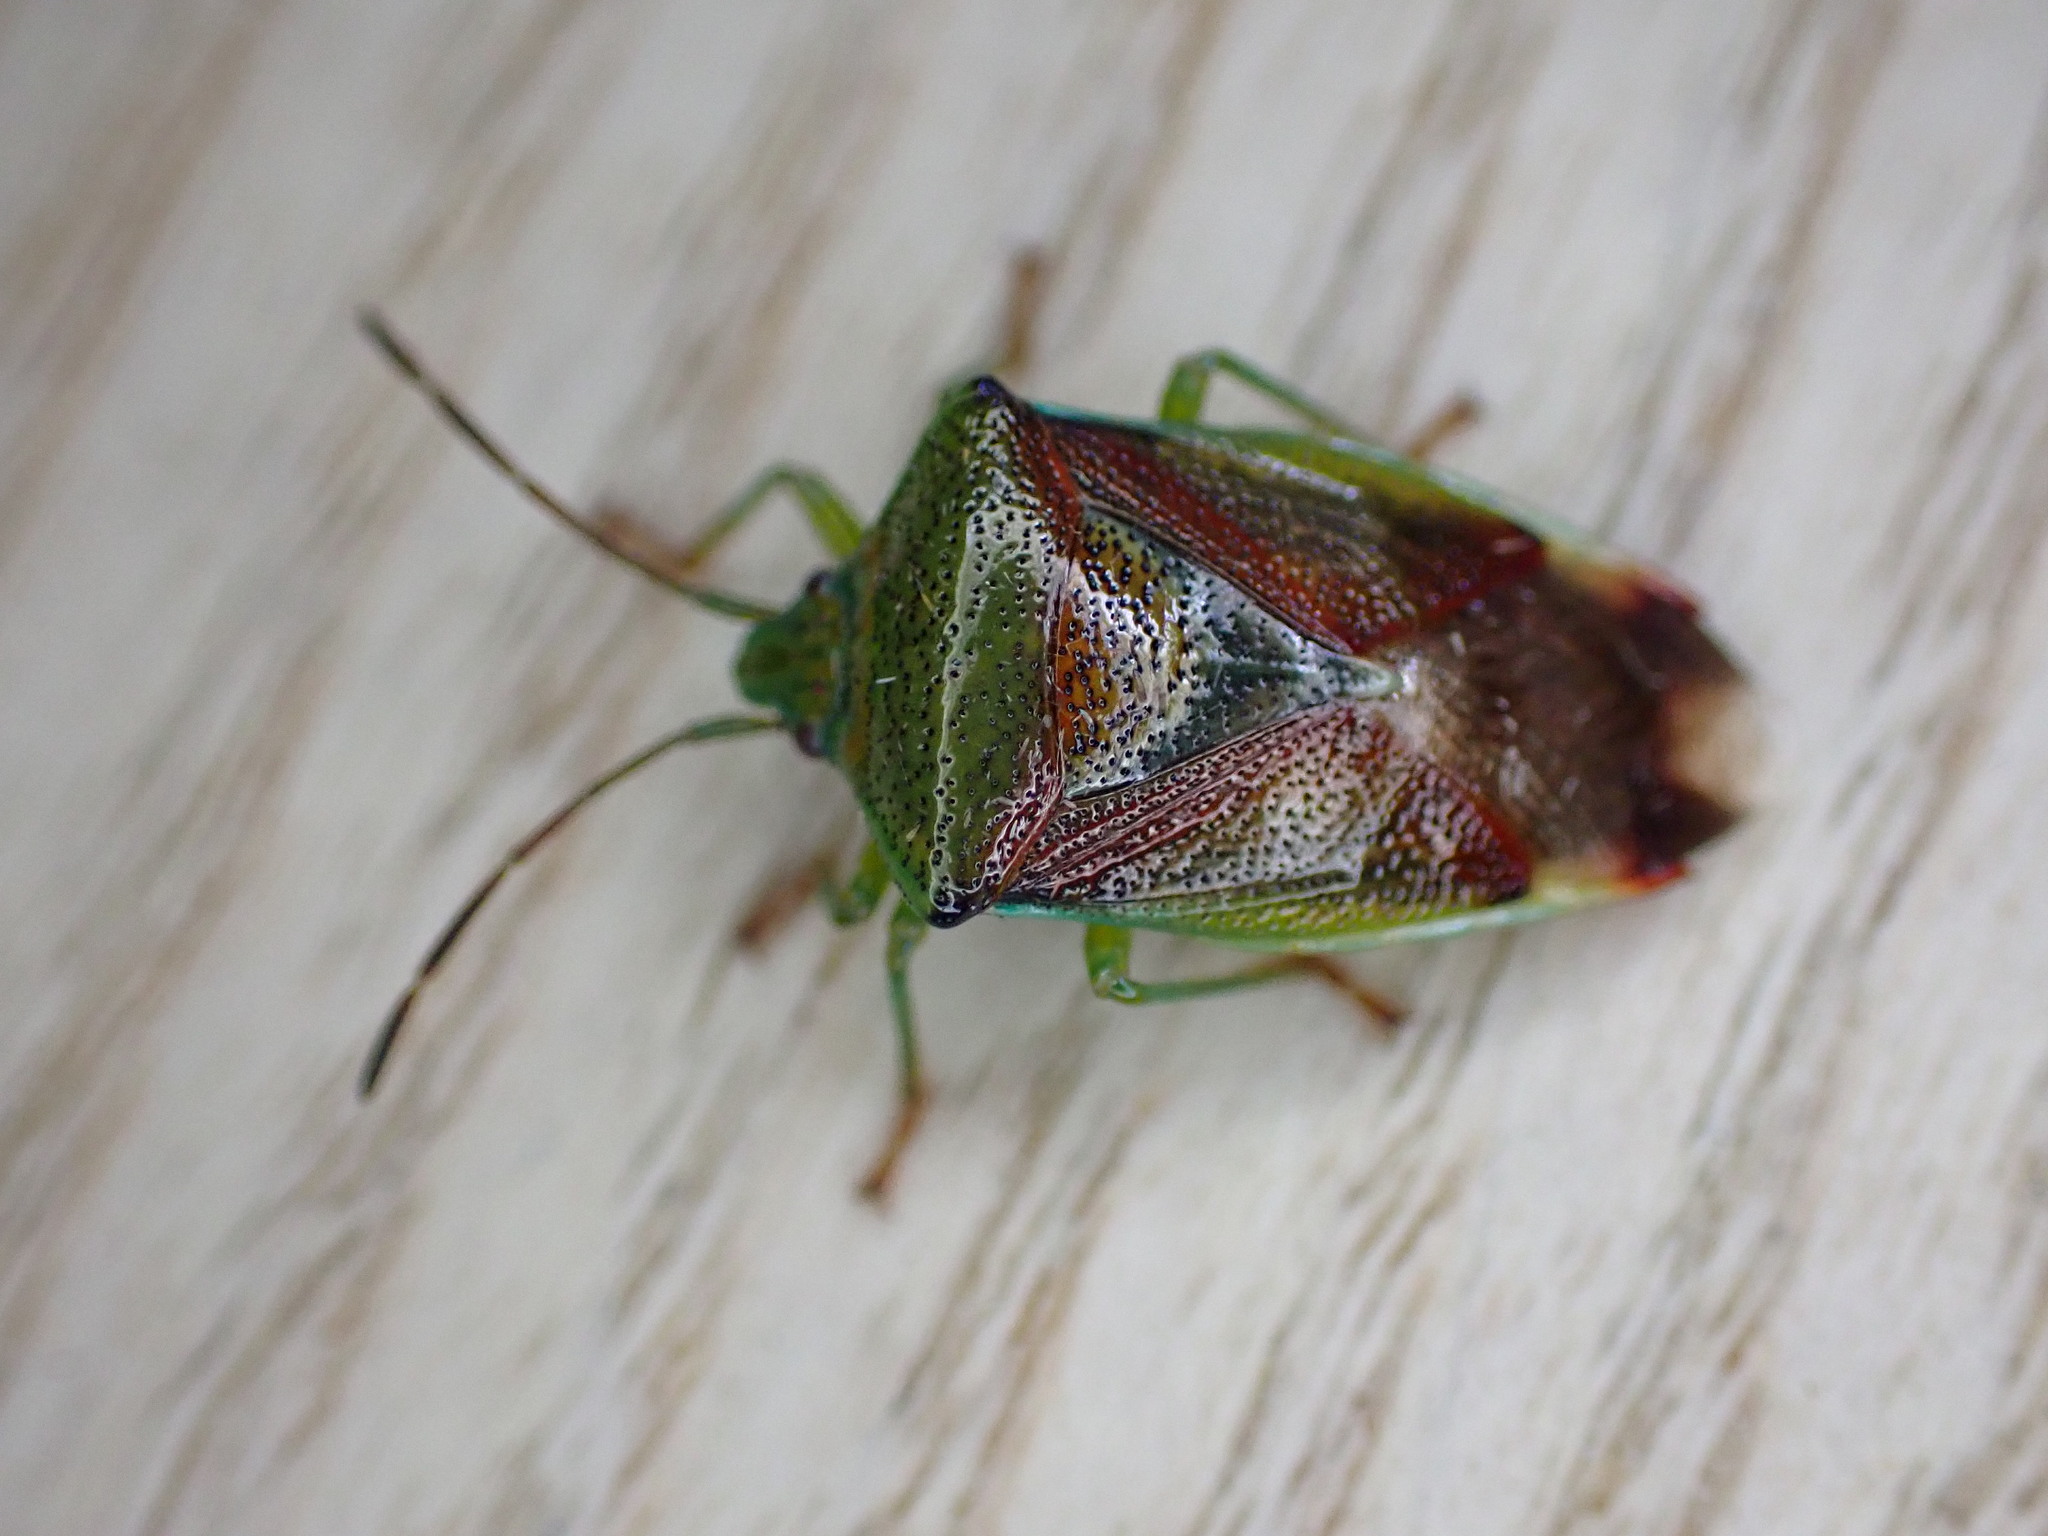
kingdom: Animalia
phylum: Arthropoda
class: Insecta
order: Hemiptera
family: Acanthosomatidae
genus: Elasmostethus
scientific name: Elasmostethus interstinctus
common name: Birch shieldbug
